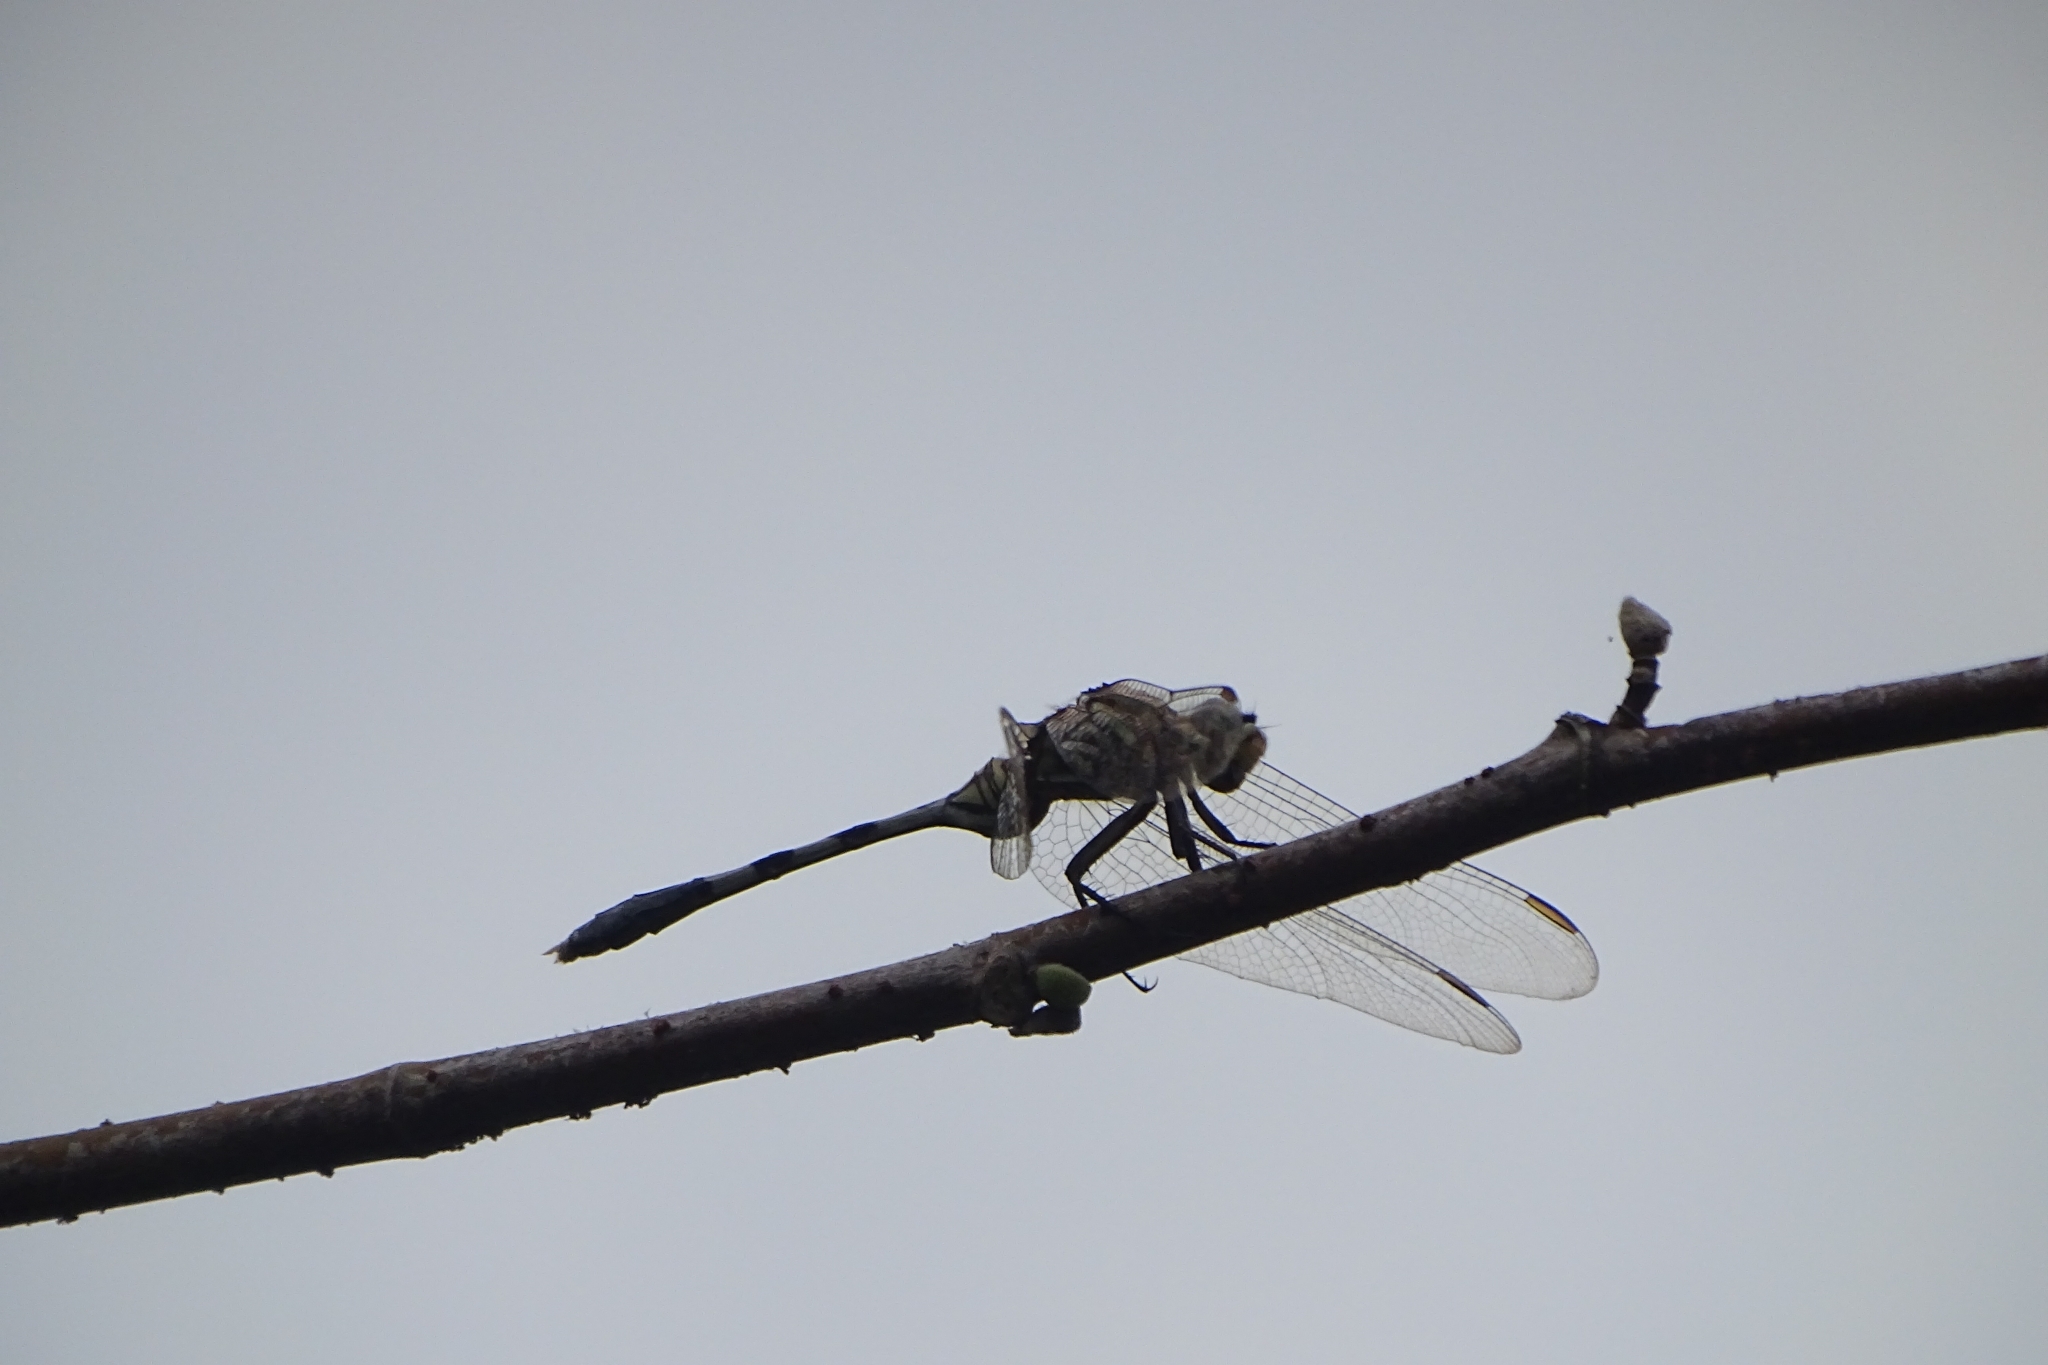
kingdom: Animalia
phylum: Arthropoda
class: Insecta
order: Odonata
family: Libellulidae
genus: Orthetrum
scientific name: Orthetrum sabina
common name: Slender skimmer
